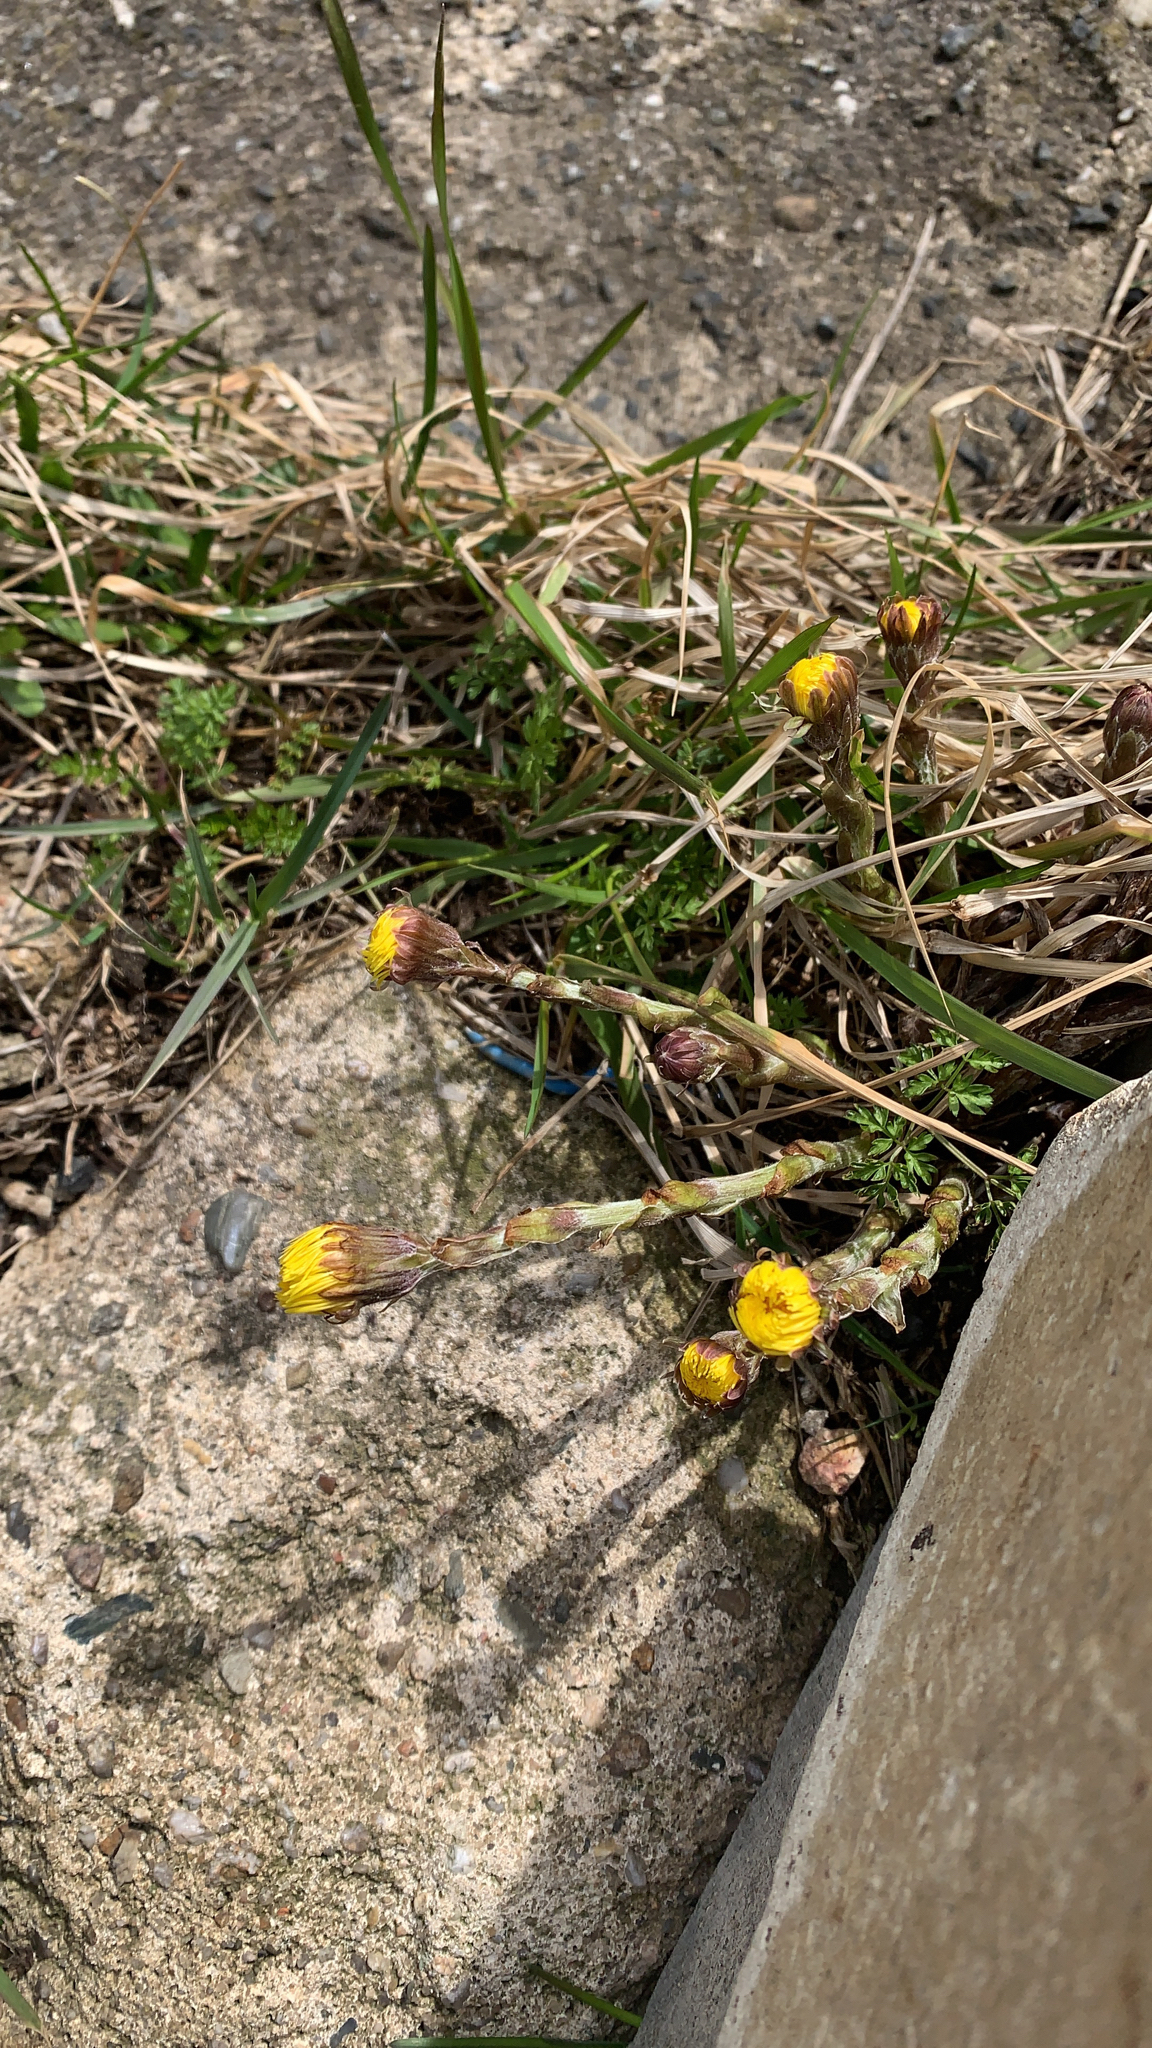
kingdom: Plantae
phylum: Tracheophyta
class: Magnoliopsida
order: Asterales
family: Asteraceae
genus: Tussilago
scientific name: Tussilago farfara
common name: Coltsfoot
